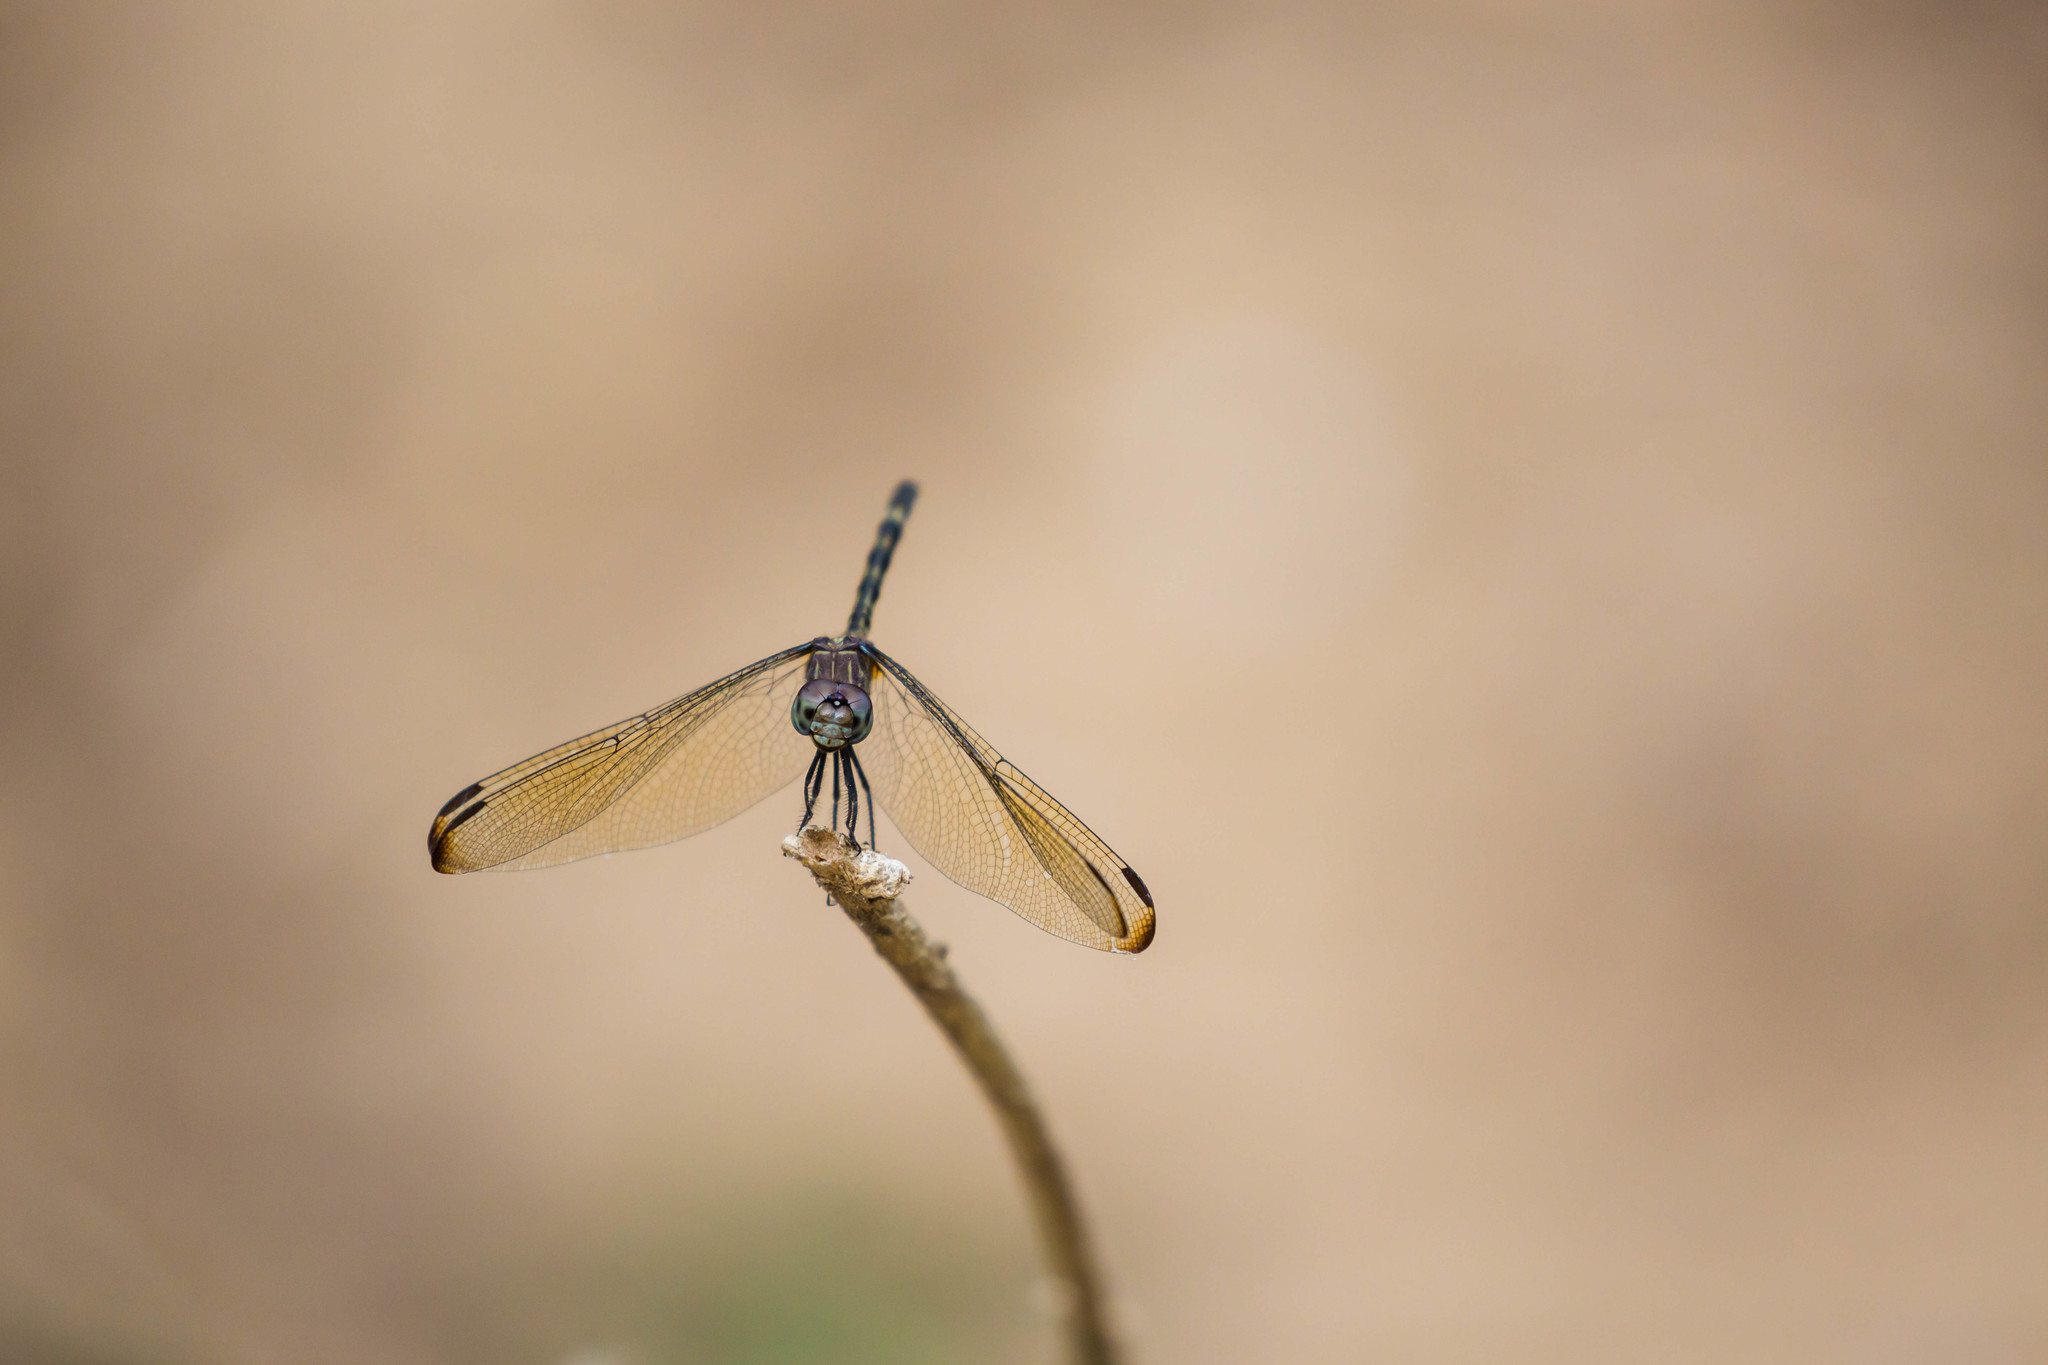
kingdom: Animalia
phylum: Arthropoda
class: Insecta
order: Odonata
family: Libellulidae
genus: Dythemis
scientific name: Dythemis nigrescens
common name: Black setwing
